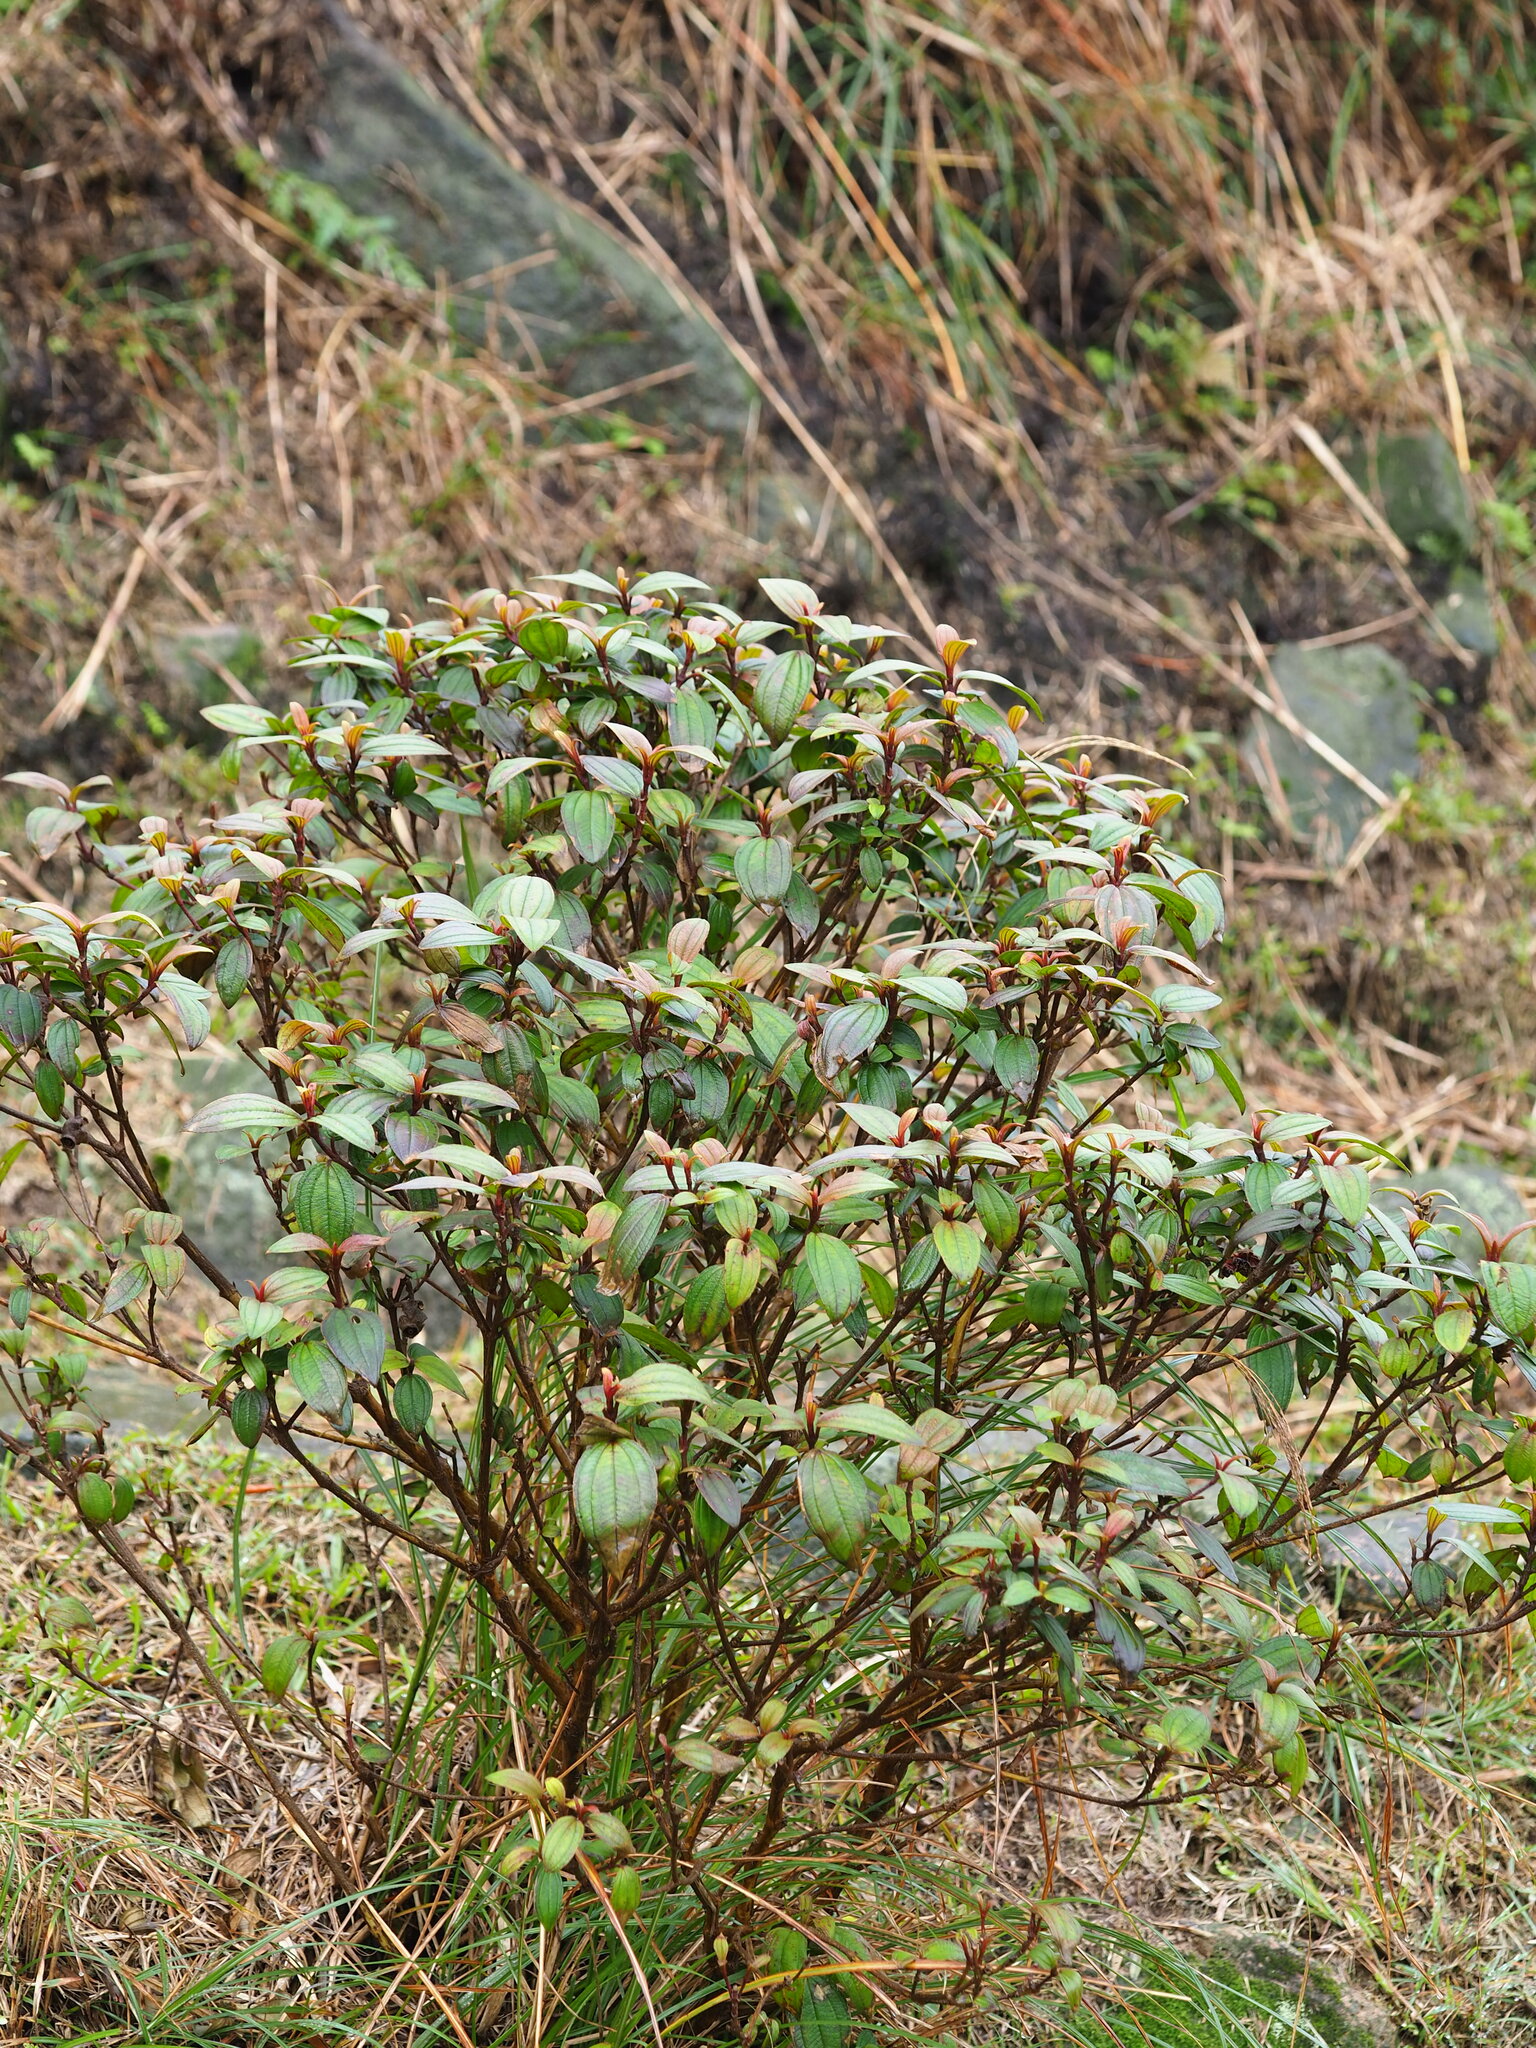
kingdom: Plantae
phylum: Tracheophyta
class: Magnoliopsida
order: Myrtales
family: Melastomataceae
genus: Melastoma
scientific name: Melastoma malabathricum
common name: Indian-rhododendron
